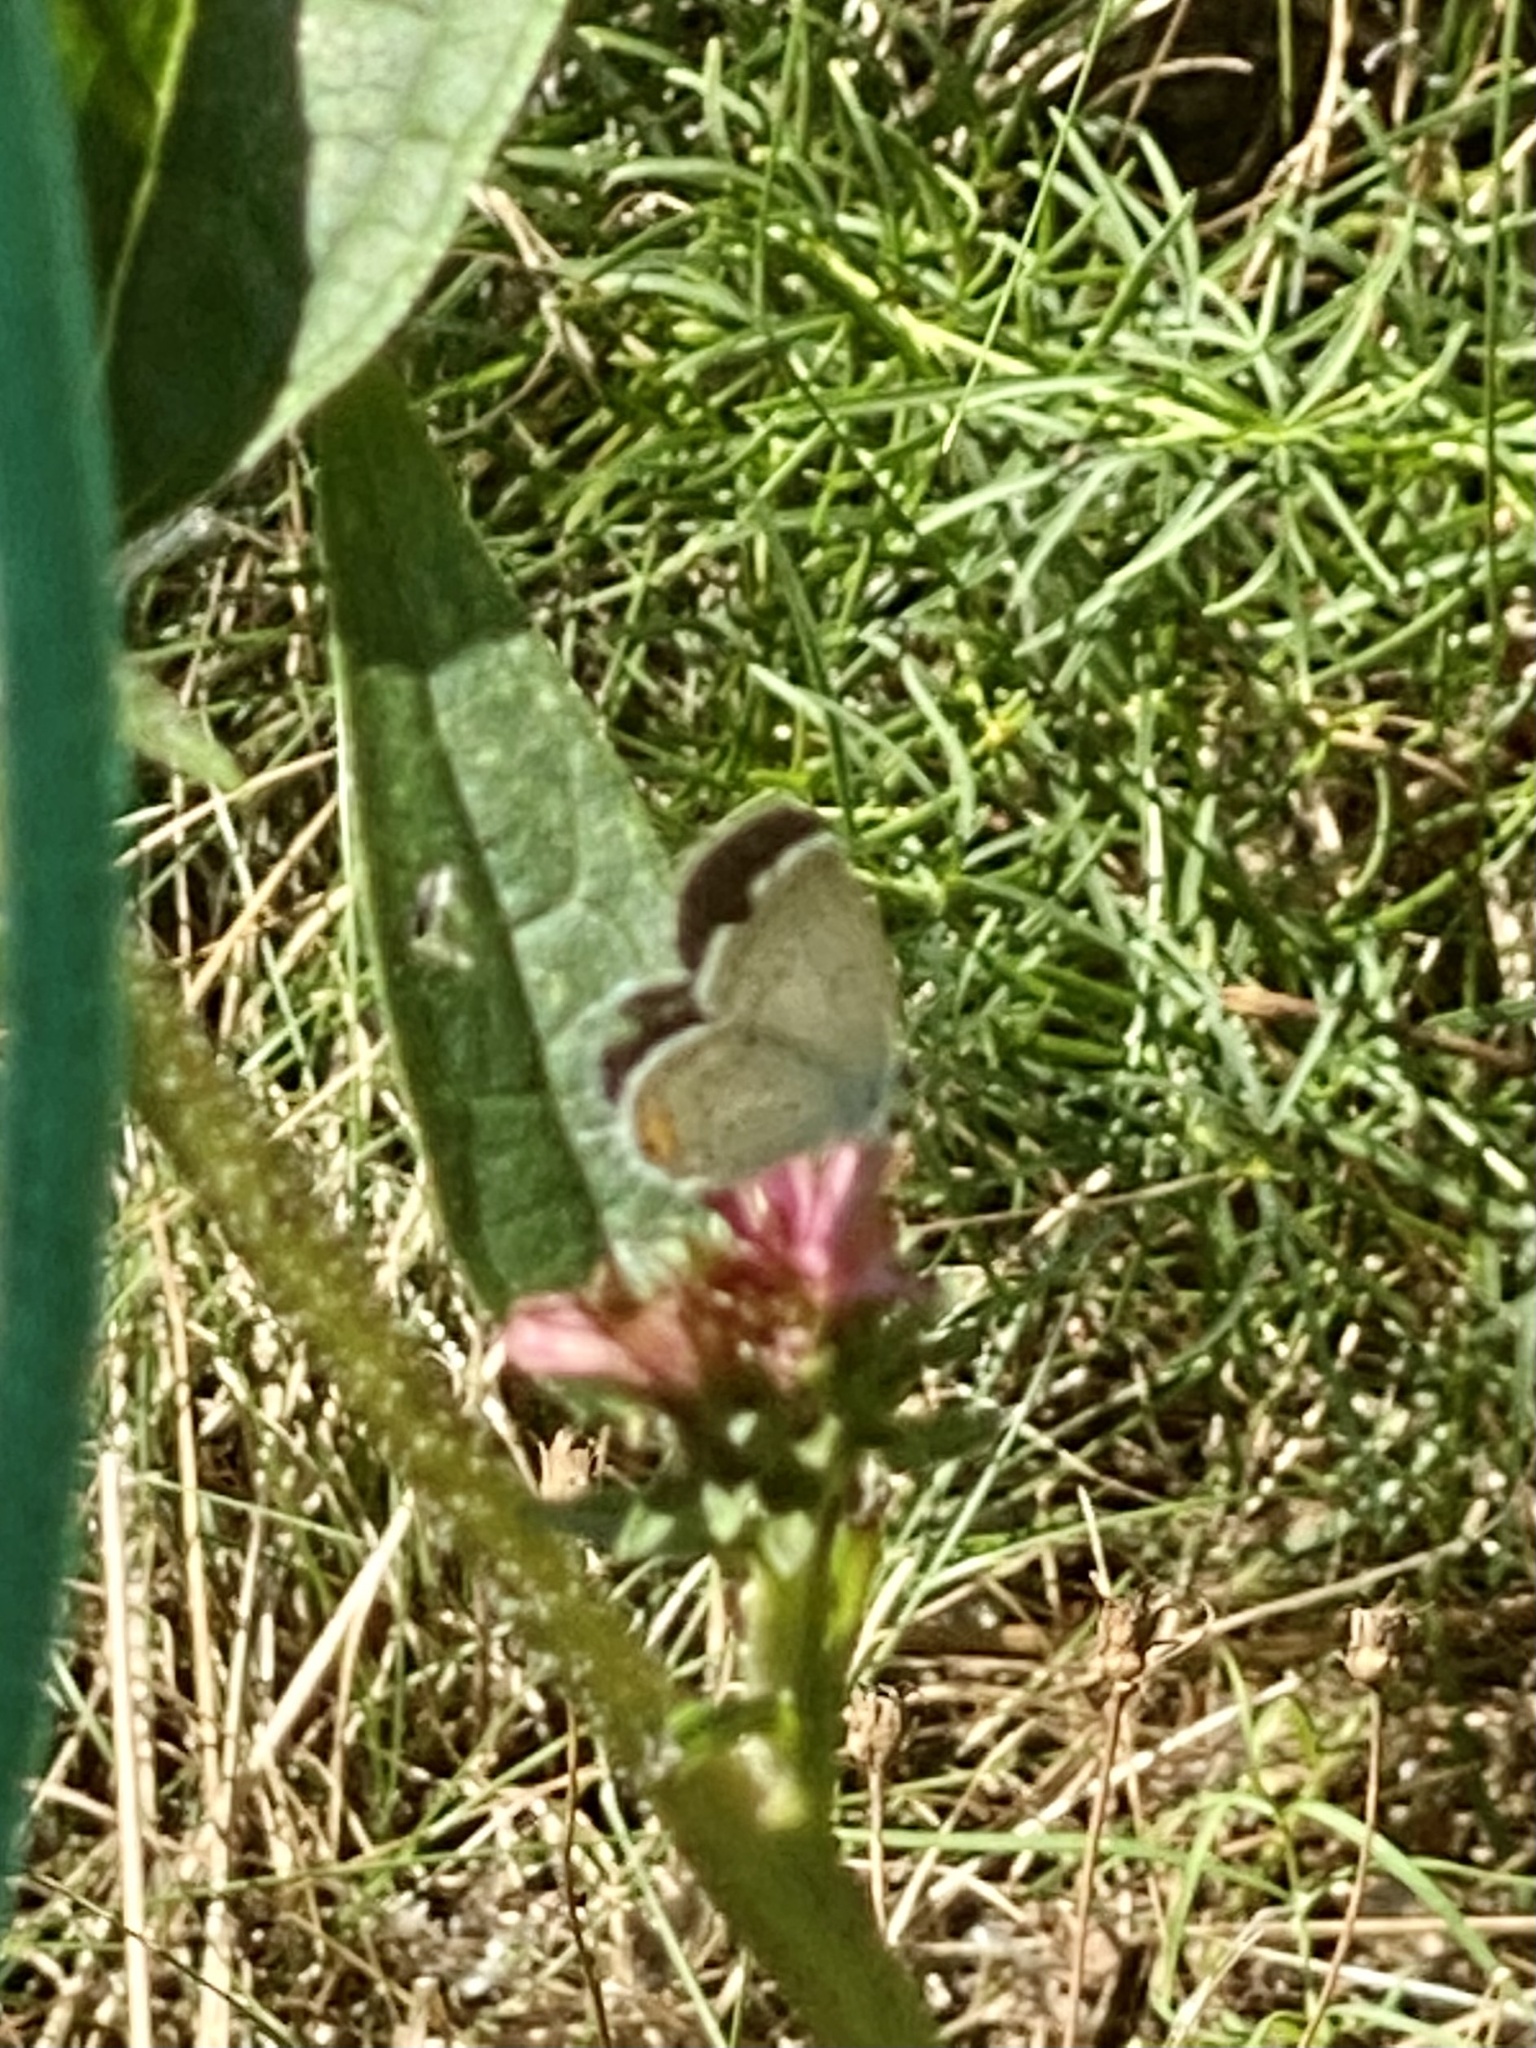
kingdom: Animalia
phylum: Arthropoda
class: Insecta
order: Lepidoptera
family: Lycaenidae
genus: Elkalyce
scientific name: Elkalyce comyntas
